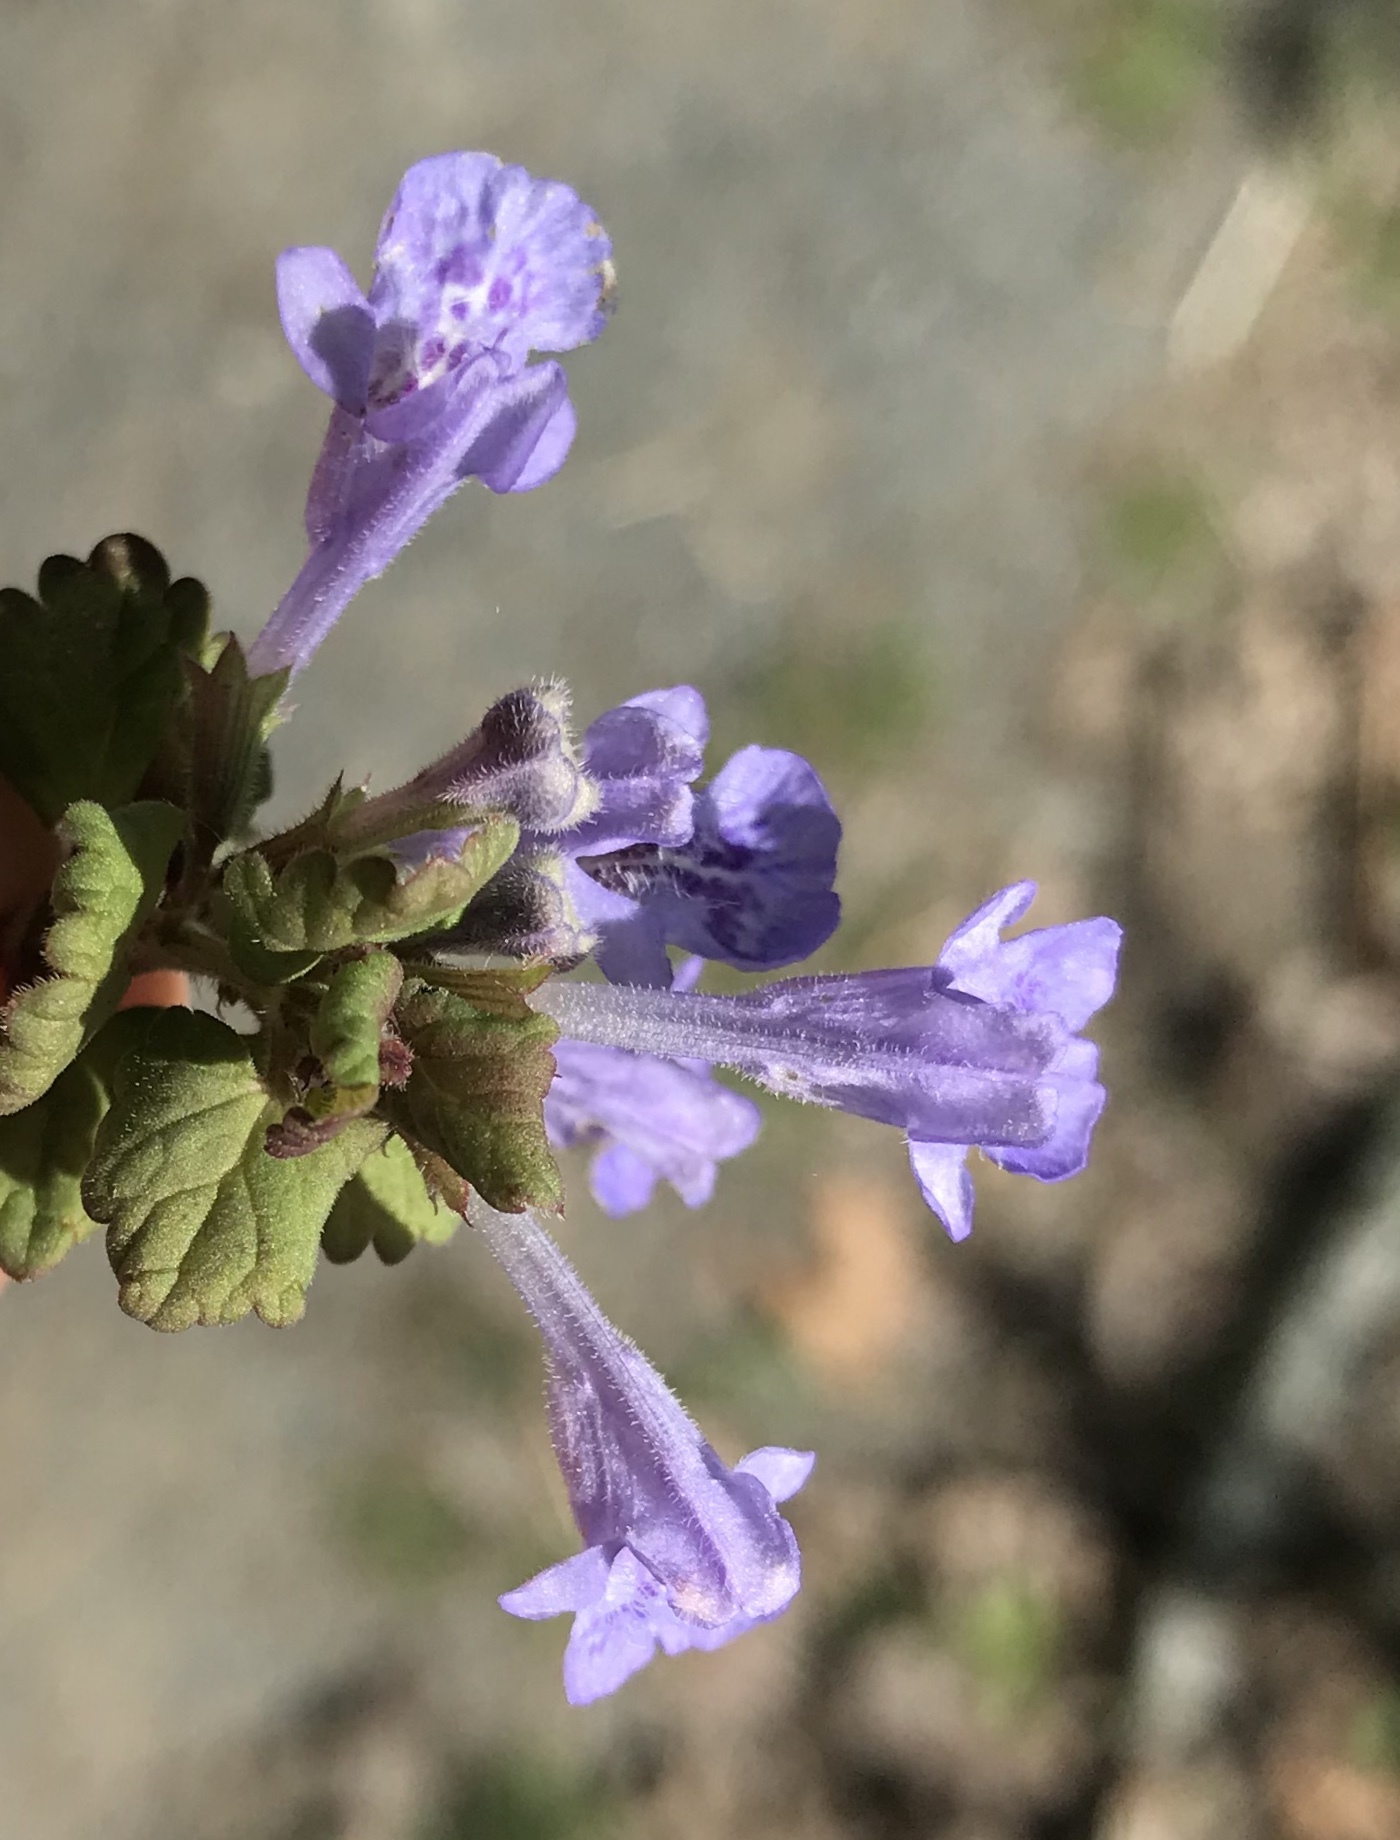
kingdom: Plantae
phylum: Tracheophyta
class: Magnoliopsida
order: Lamiales
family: Lamiaceae
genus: Glechoma
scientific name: Glechoma hederacea
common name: Ground ivy
